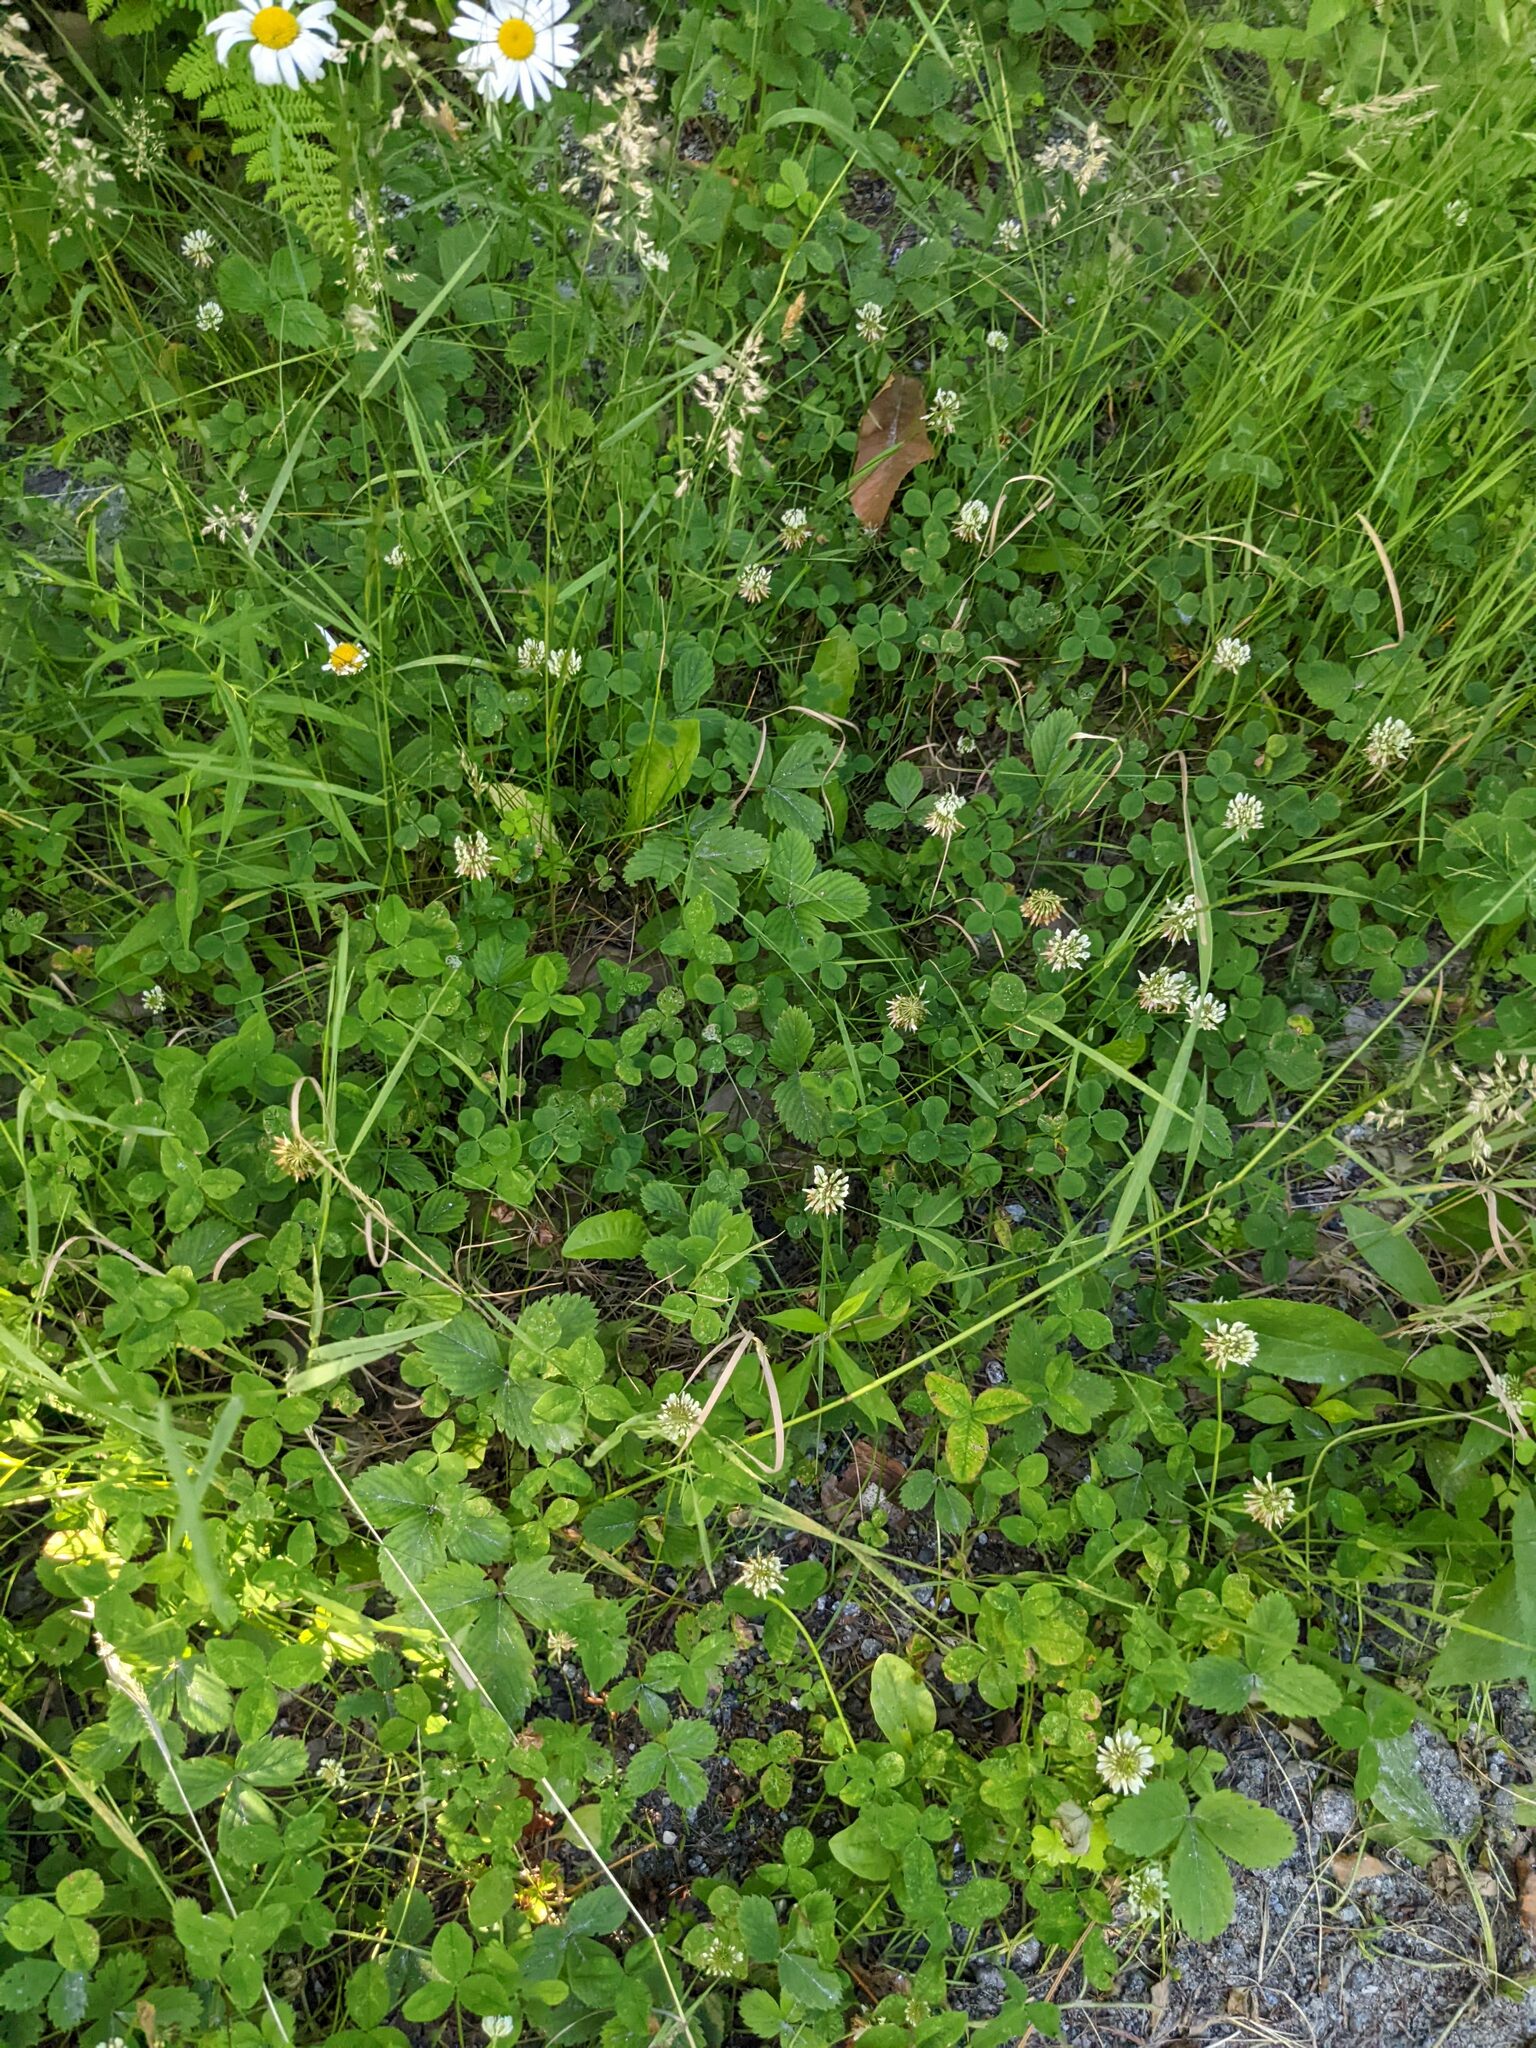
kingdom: Plantae
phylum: Tracheophyta
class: Magnoliopsida
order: Fabales
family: Fabaceae
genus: Trifolium
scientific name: Trifolium repens
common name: White clover
